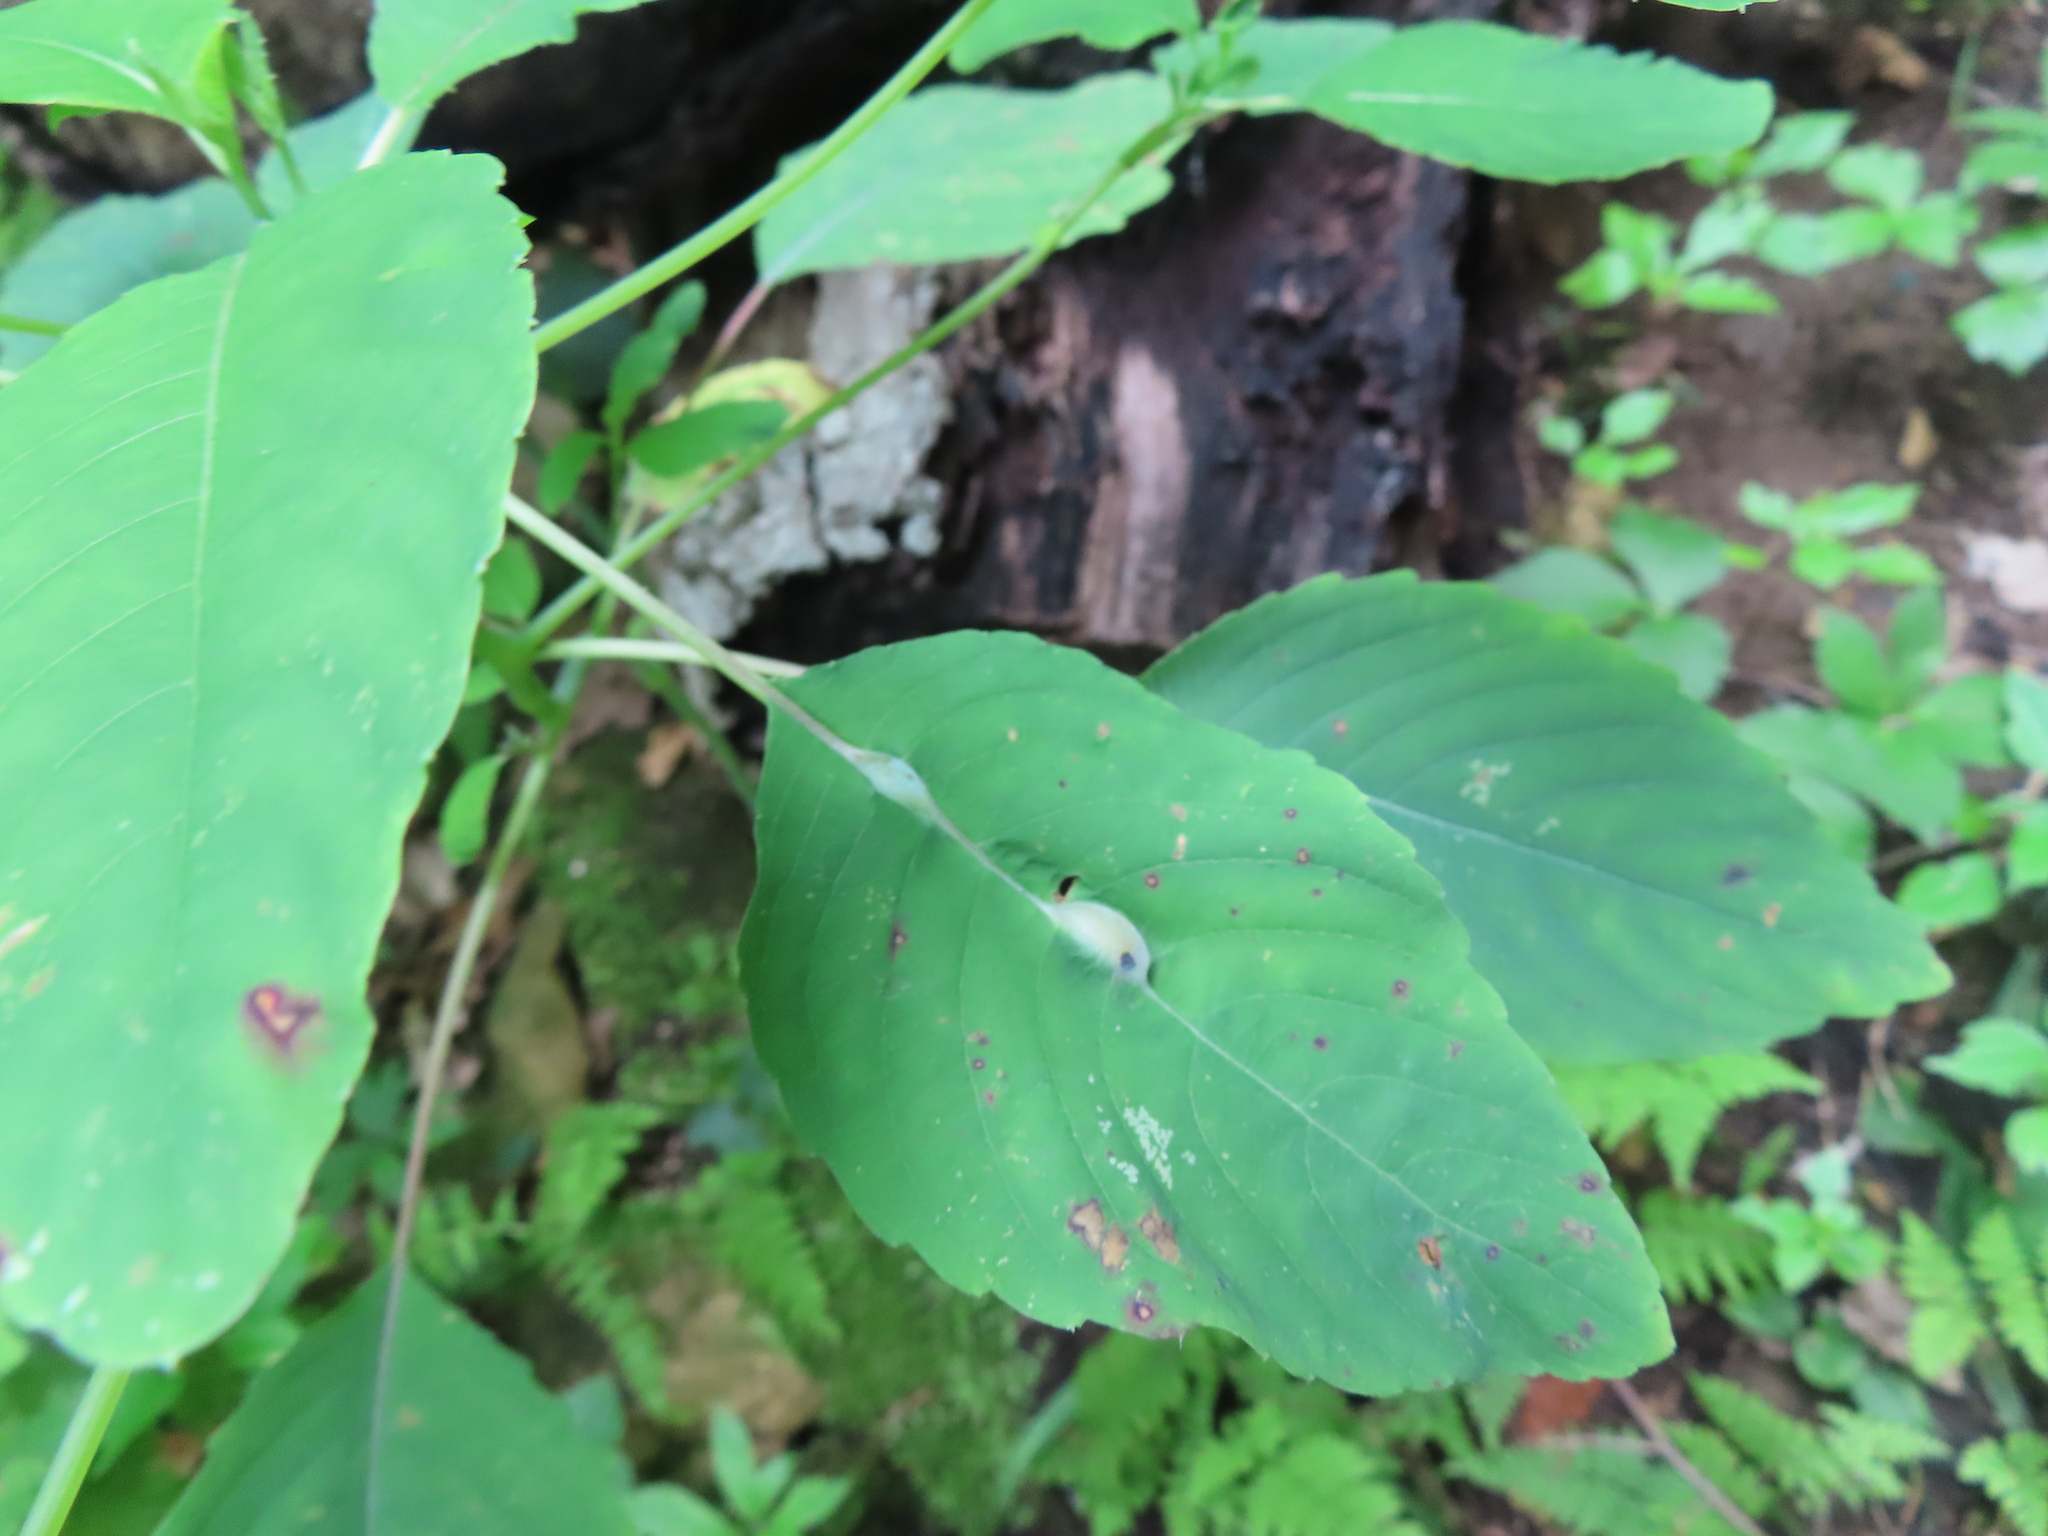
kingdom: Animalia
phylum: Arthropoda
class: Insecta
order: Diptera
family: Cecidomyiidae
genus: Neolasioptera
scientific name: Neolasioptera impatientifolia
